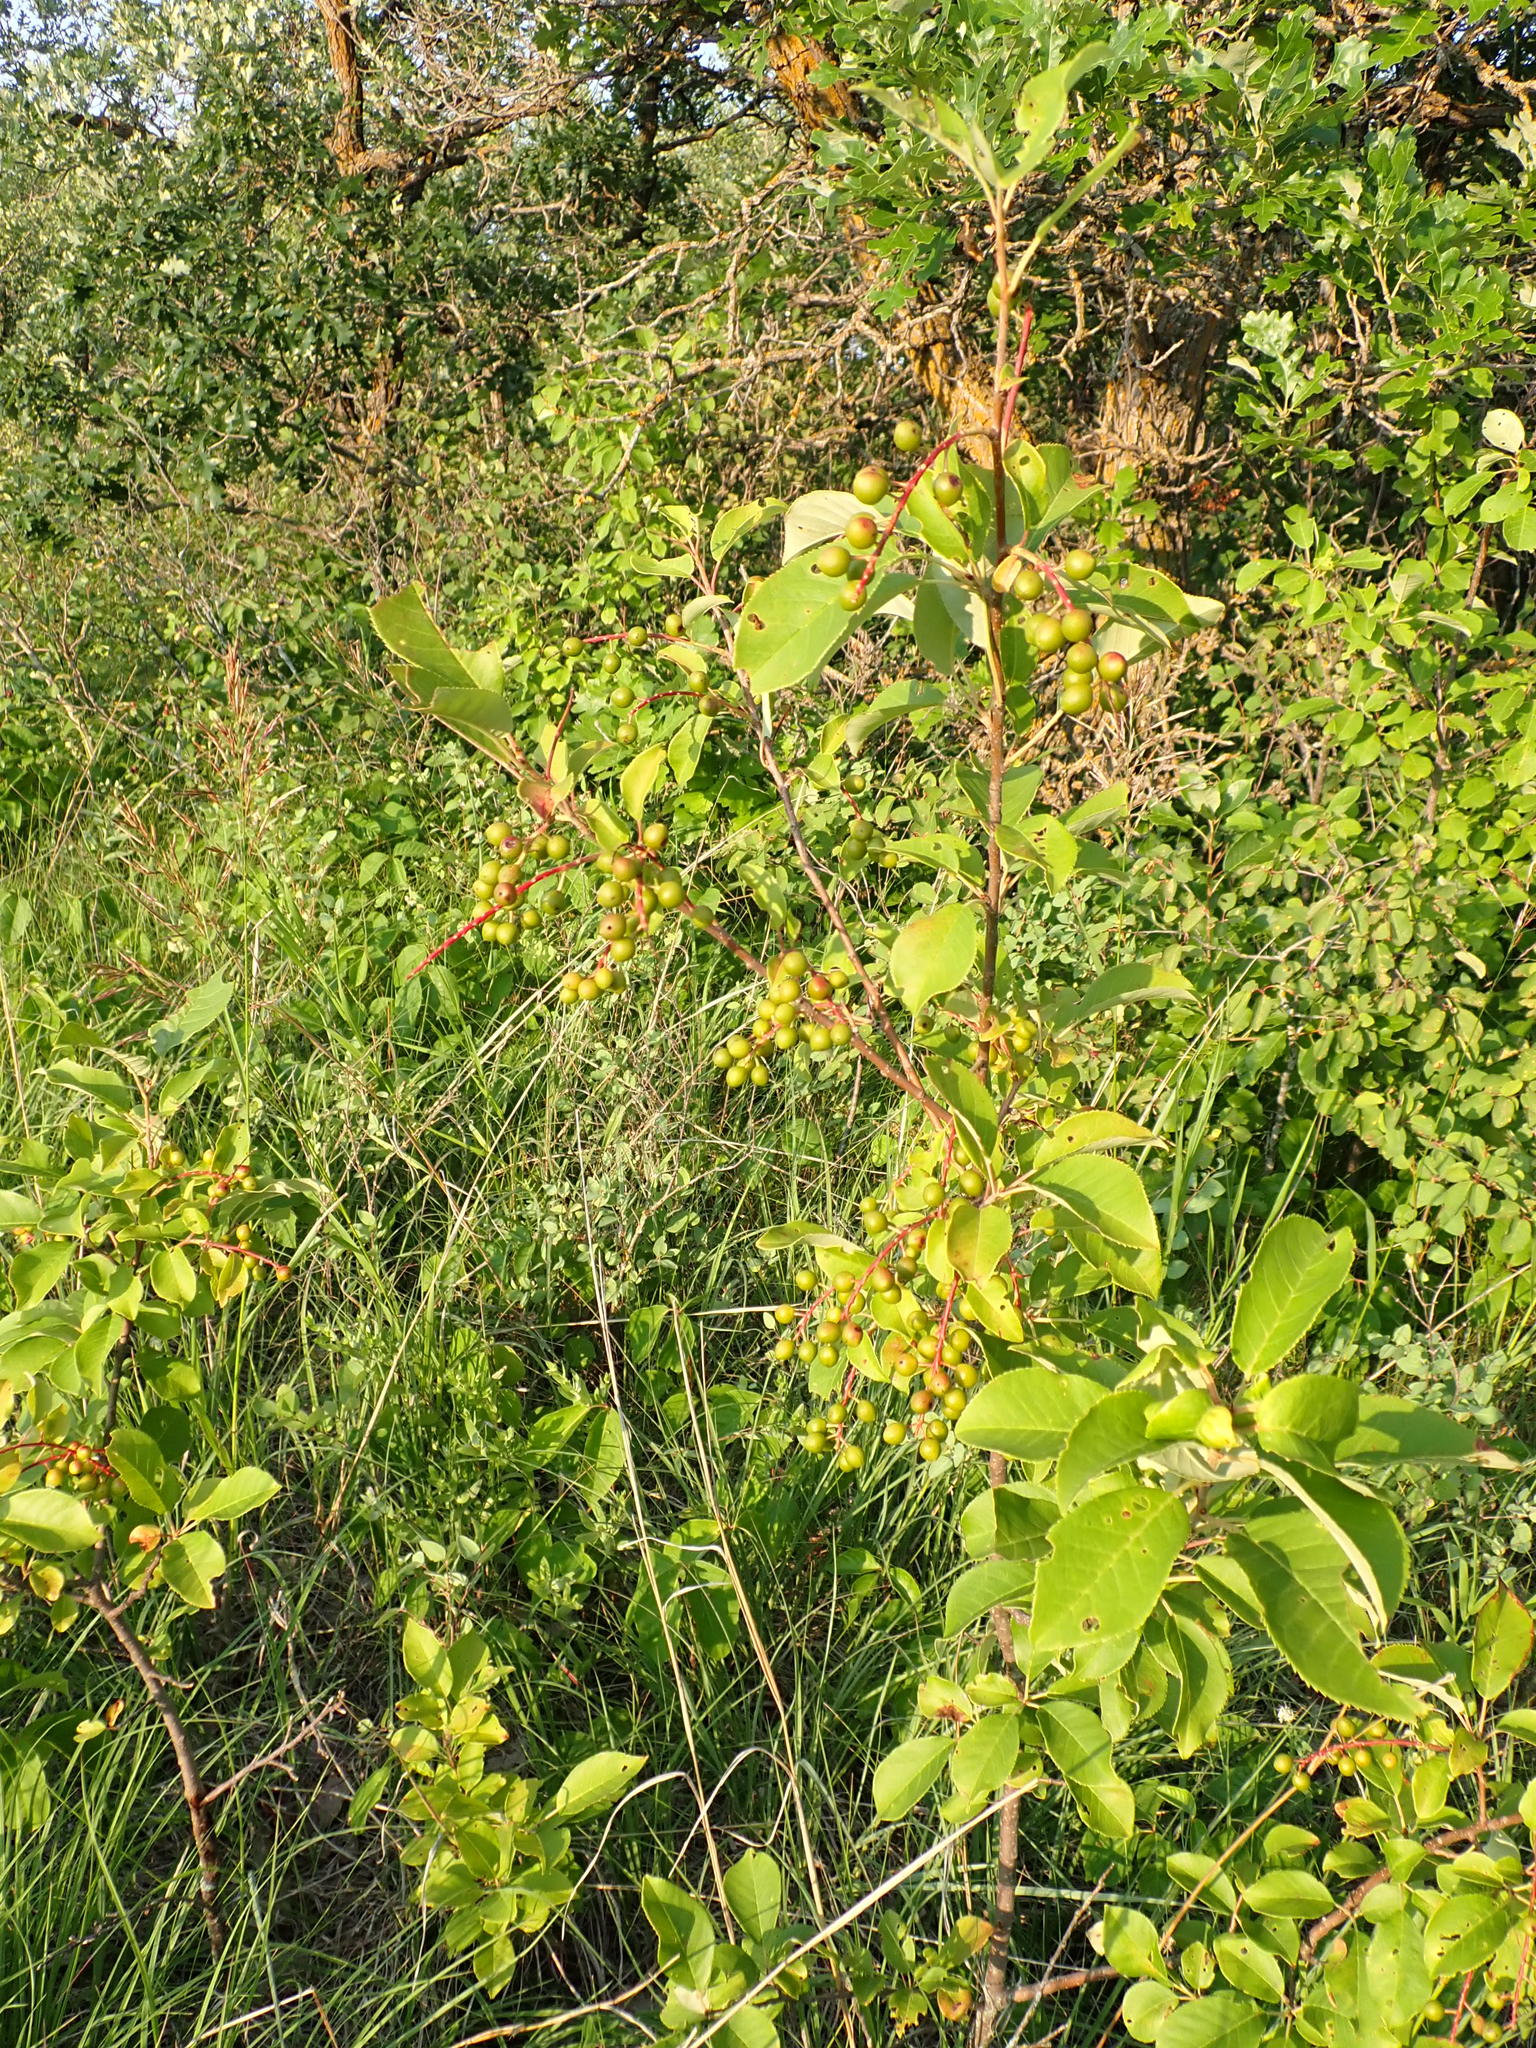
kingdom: Plantae
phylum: Tracheophyta
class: Magnoliopsida
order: Rosales
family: Rosaceae
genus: Prunus
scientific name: Prunus virginiana
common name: Chokecherry
